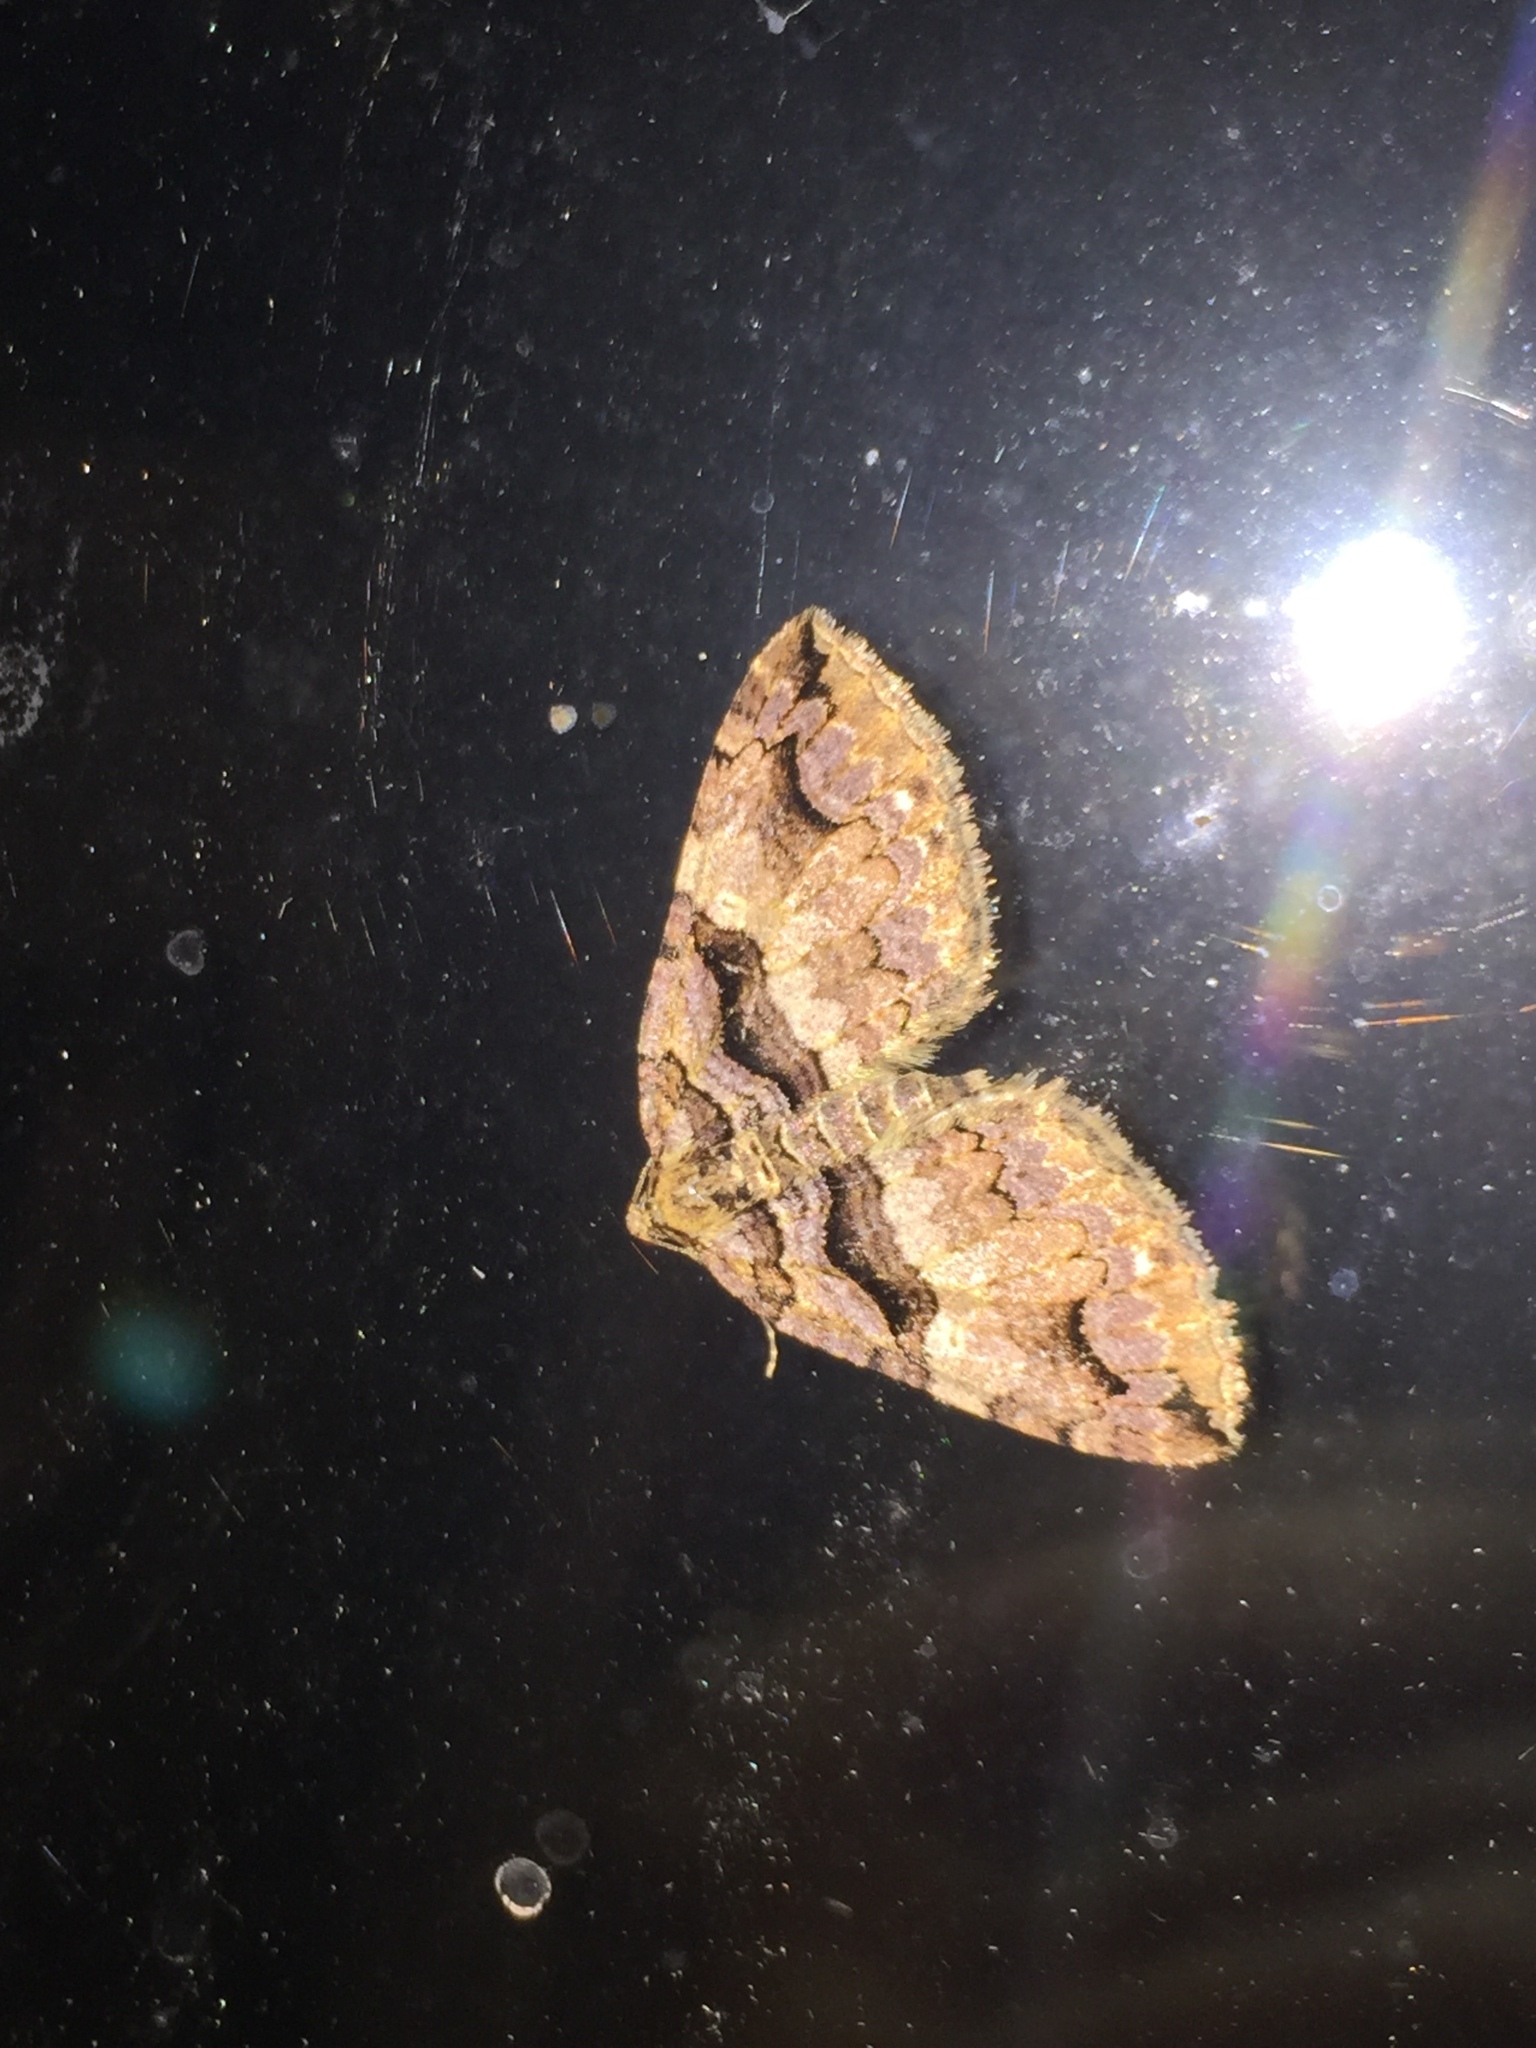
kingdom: Animalia
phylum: Arthropoda
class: Insecta
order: Lepidoptera
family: Geometridae
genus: Anticlea
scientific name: Anticlea vasiliata
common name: Variable carpet
